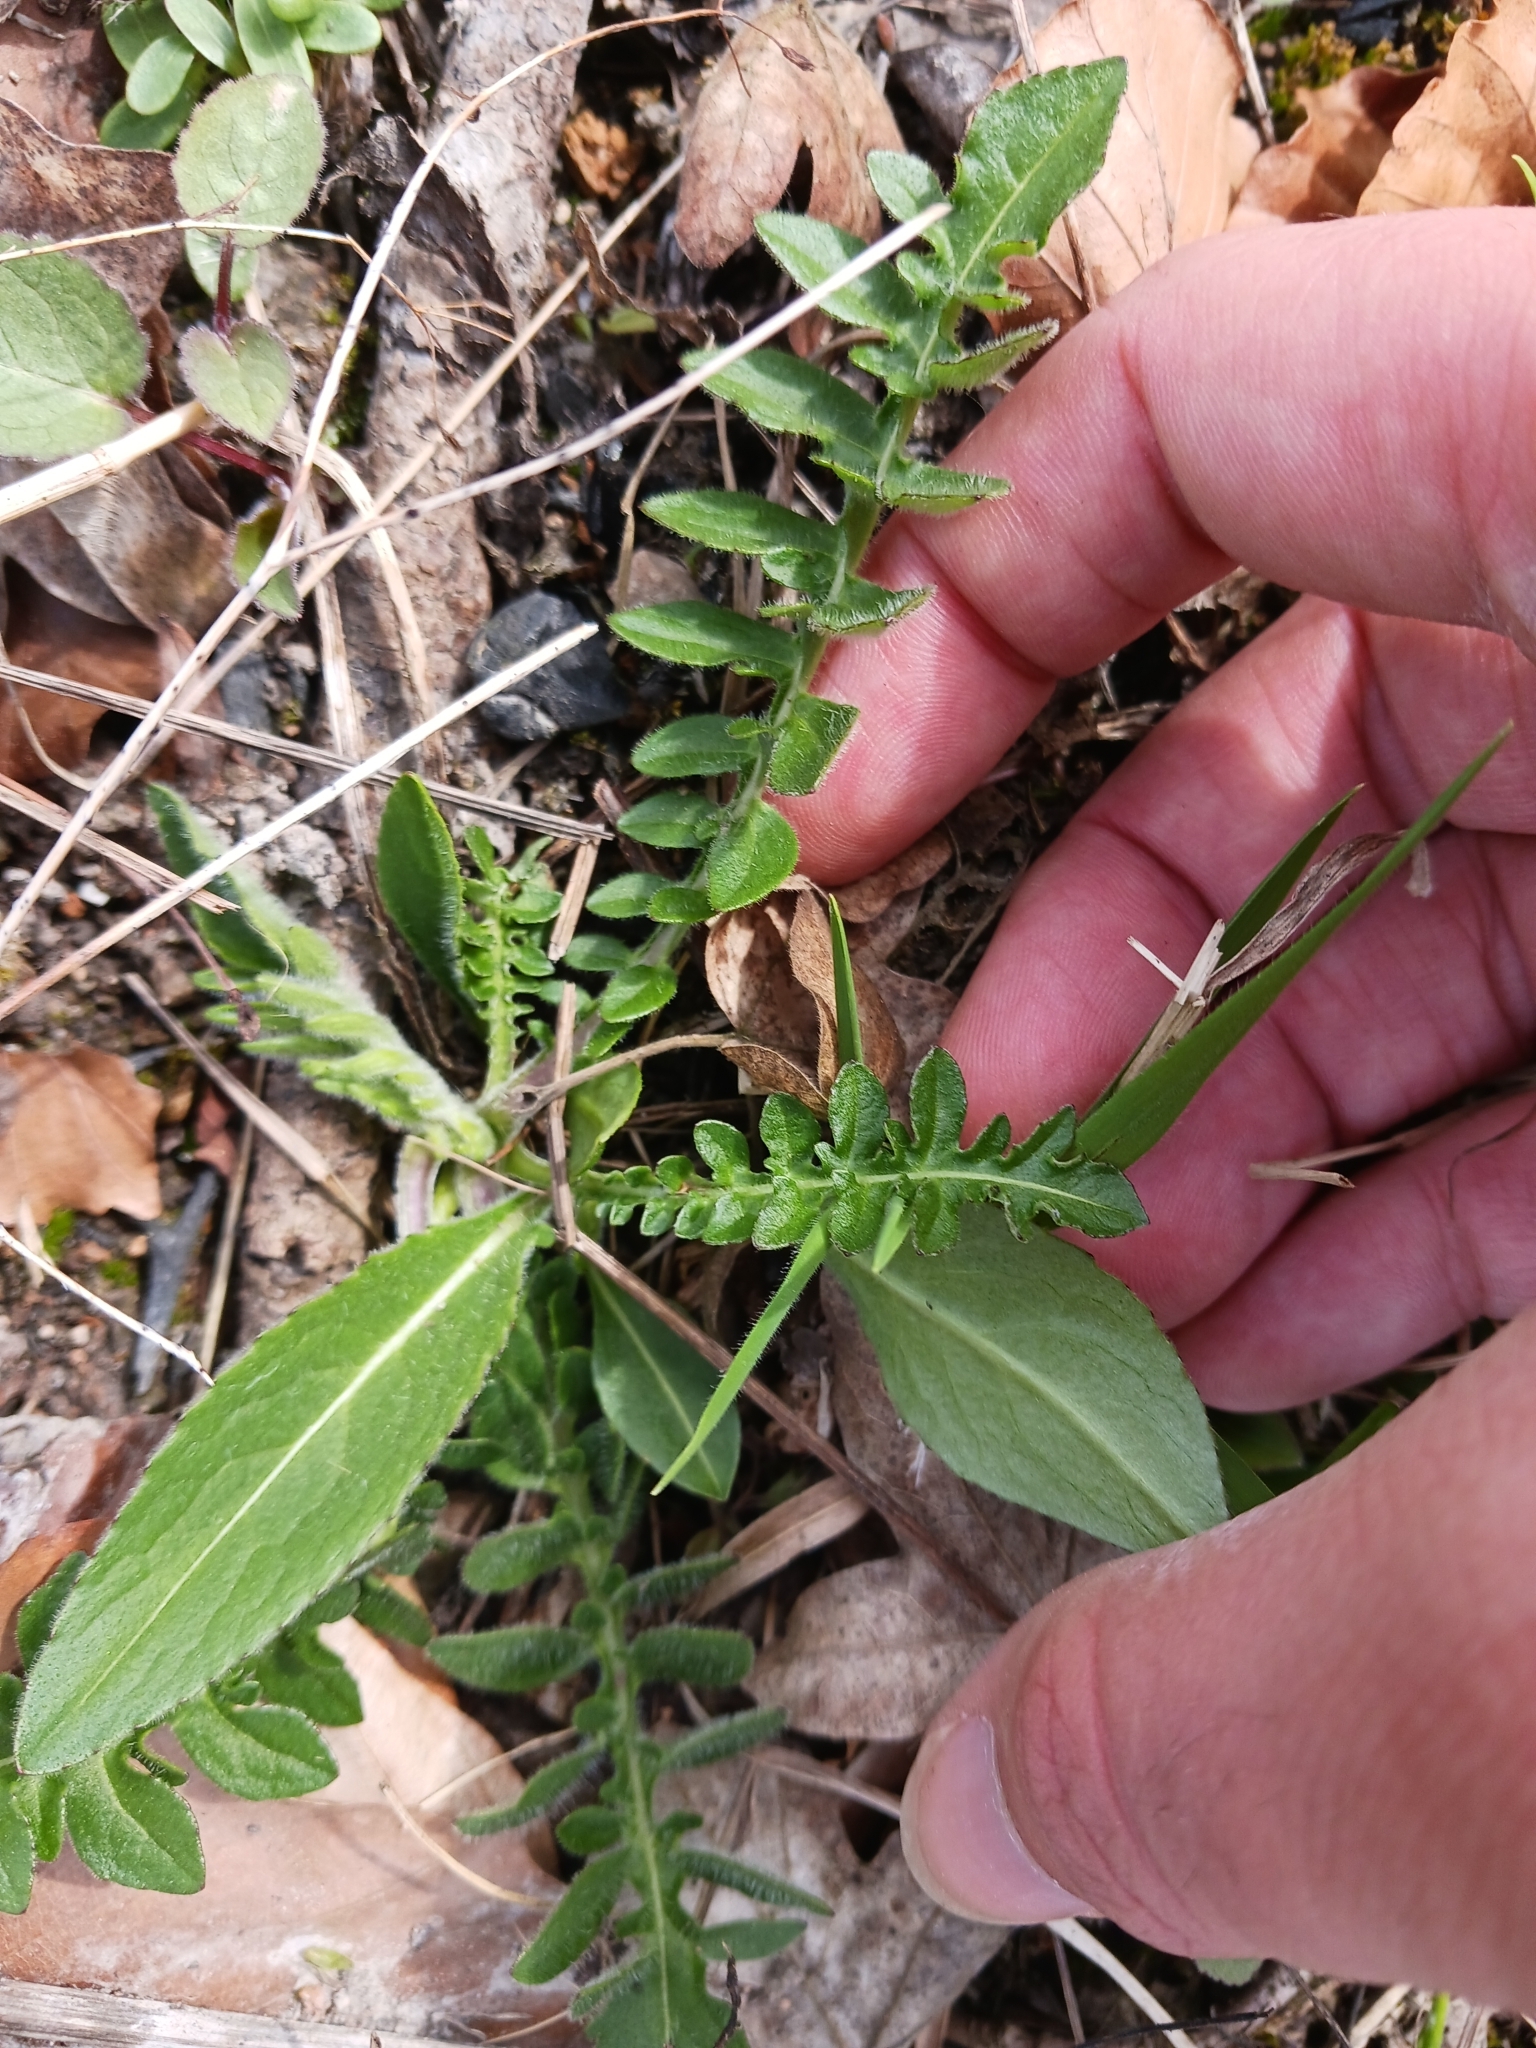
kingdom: Plantae
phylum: Tracheophyta
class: Magnoliopsida
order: Asterales
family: Asteraceae
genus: Centaurea
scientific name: Centaurea scabiosa
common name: Greater knapweed
